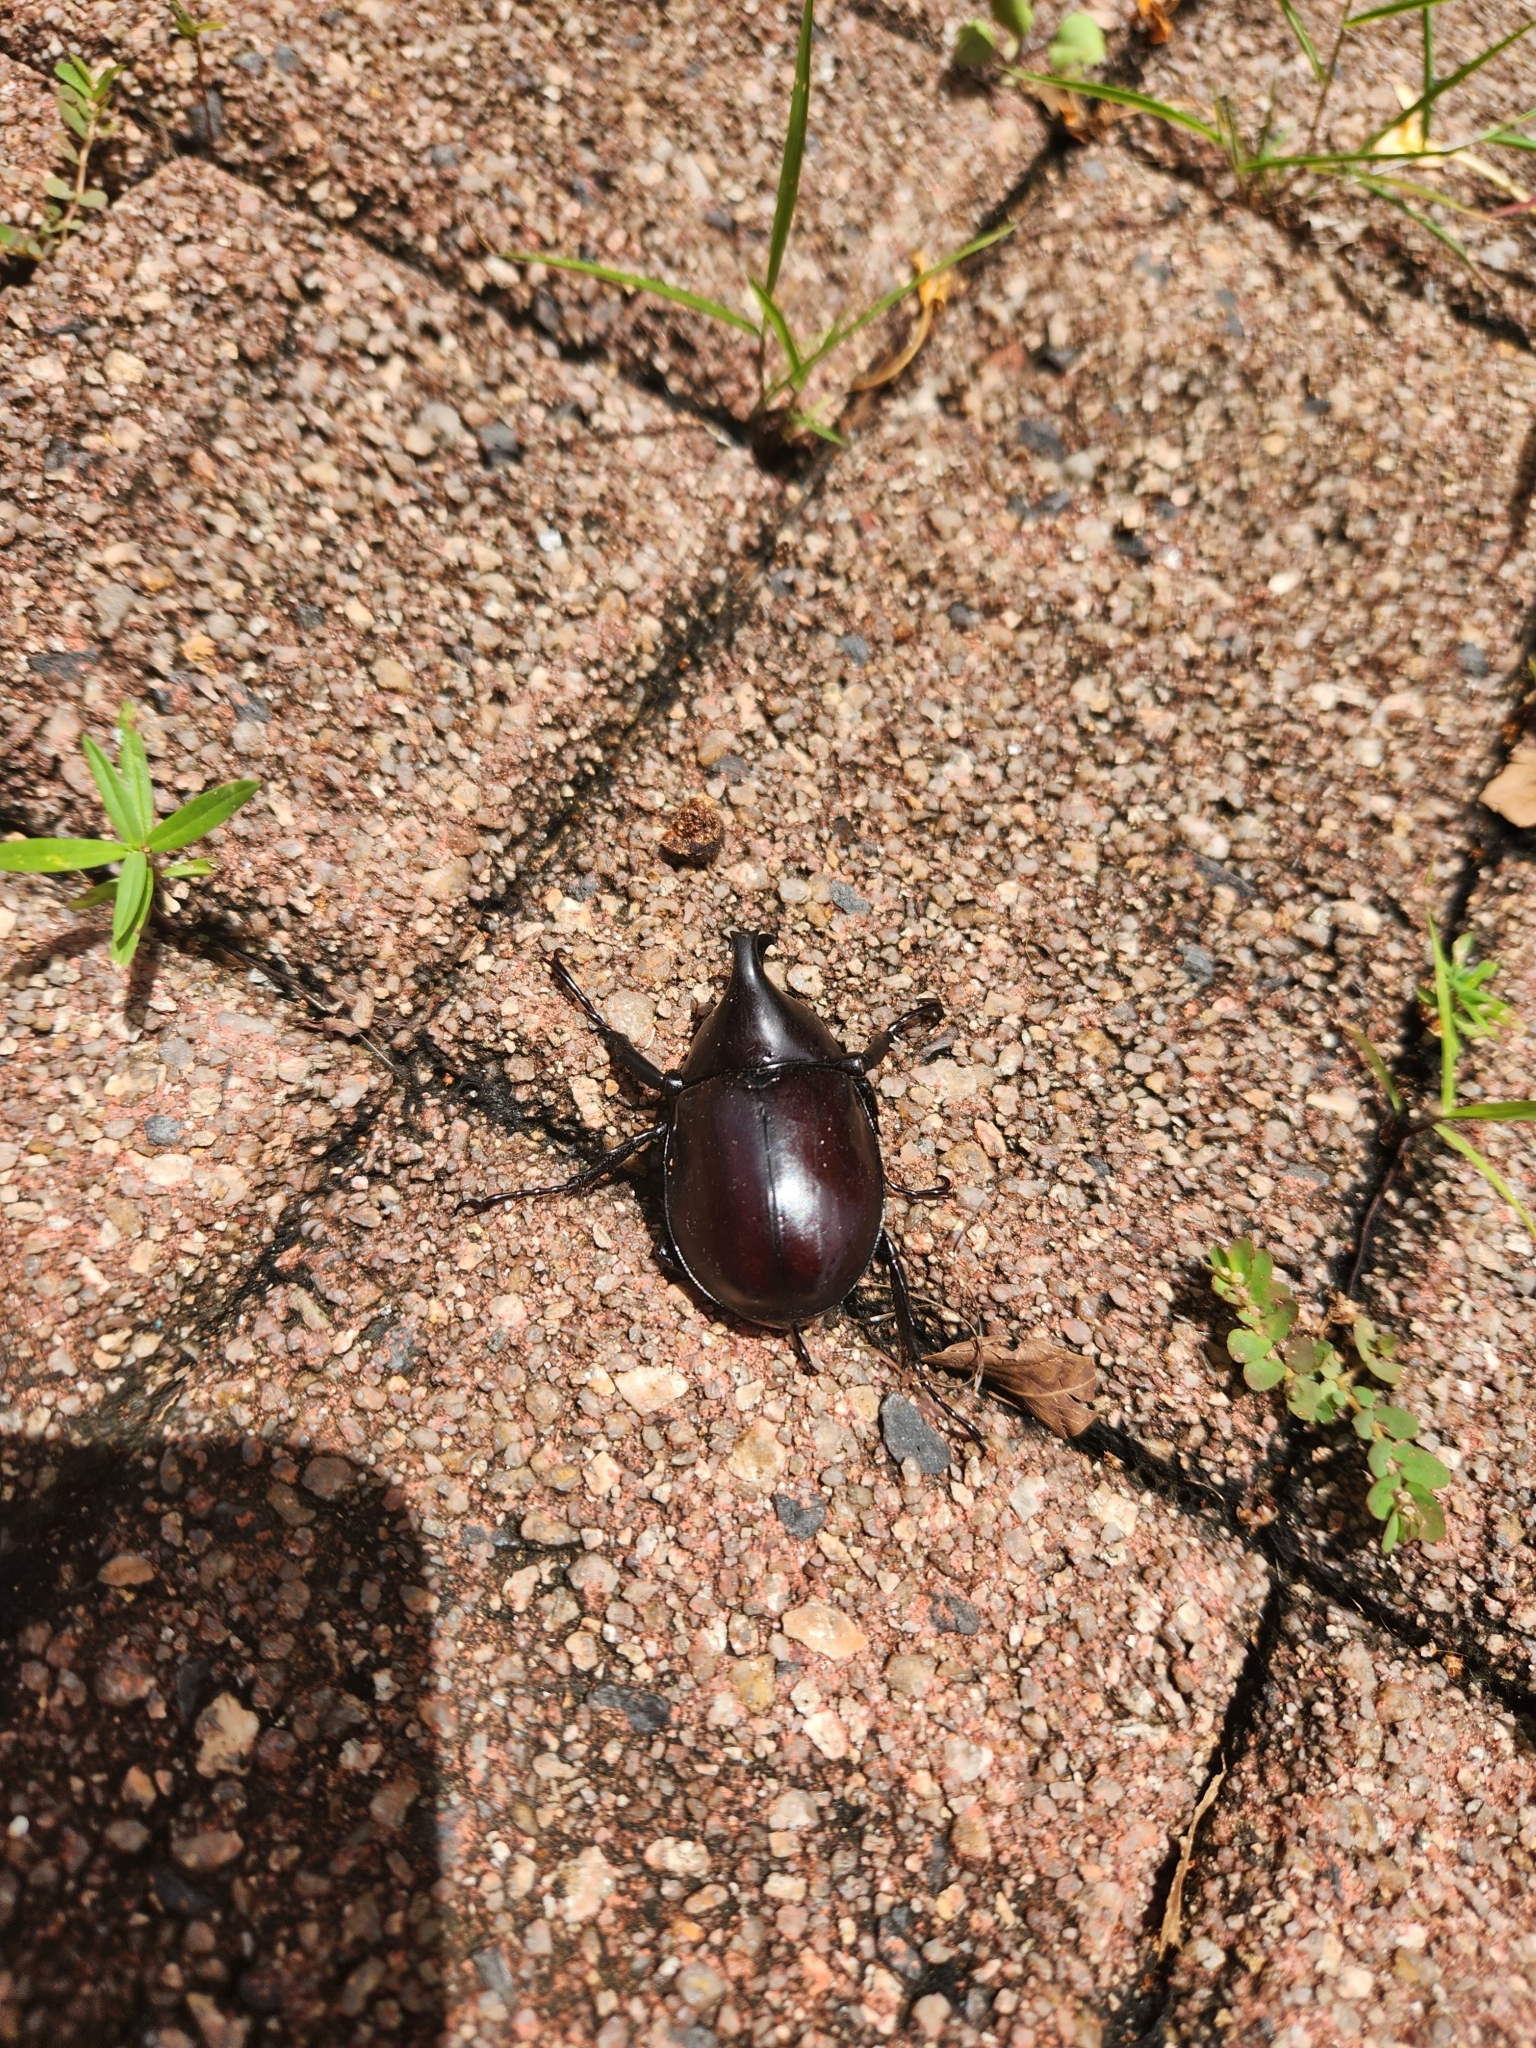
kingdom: Animalia
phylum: Arthropoda
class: Insecta
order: Coleoptera
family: Scarabaeidae
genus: Xylotrupes
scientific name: Xylotrupes australicus
